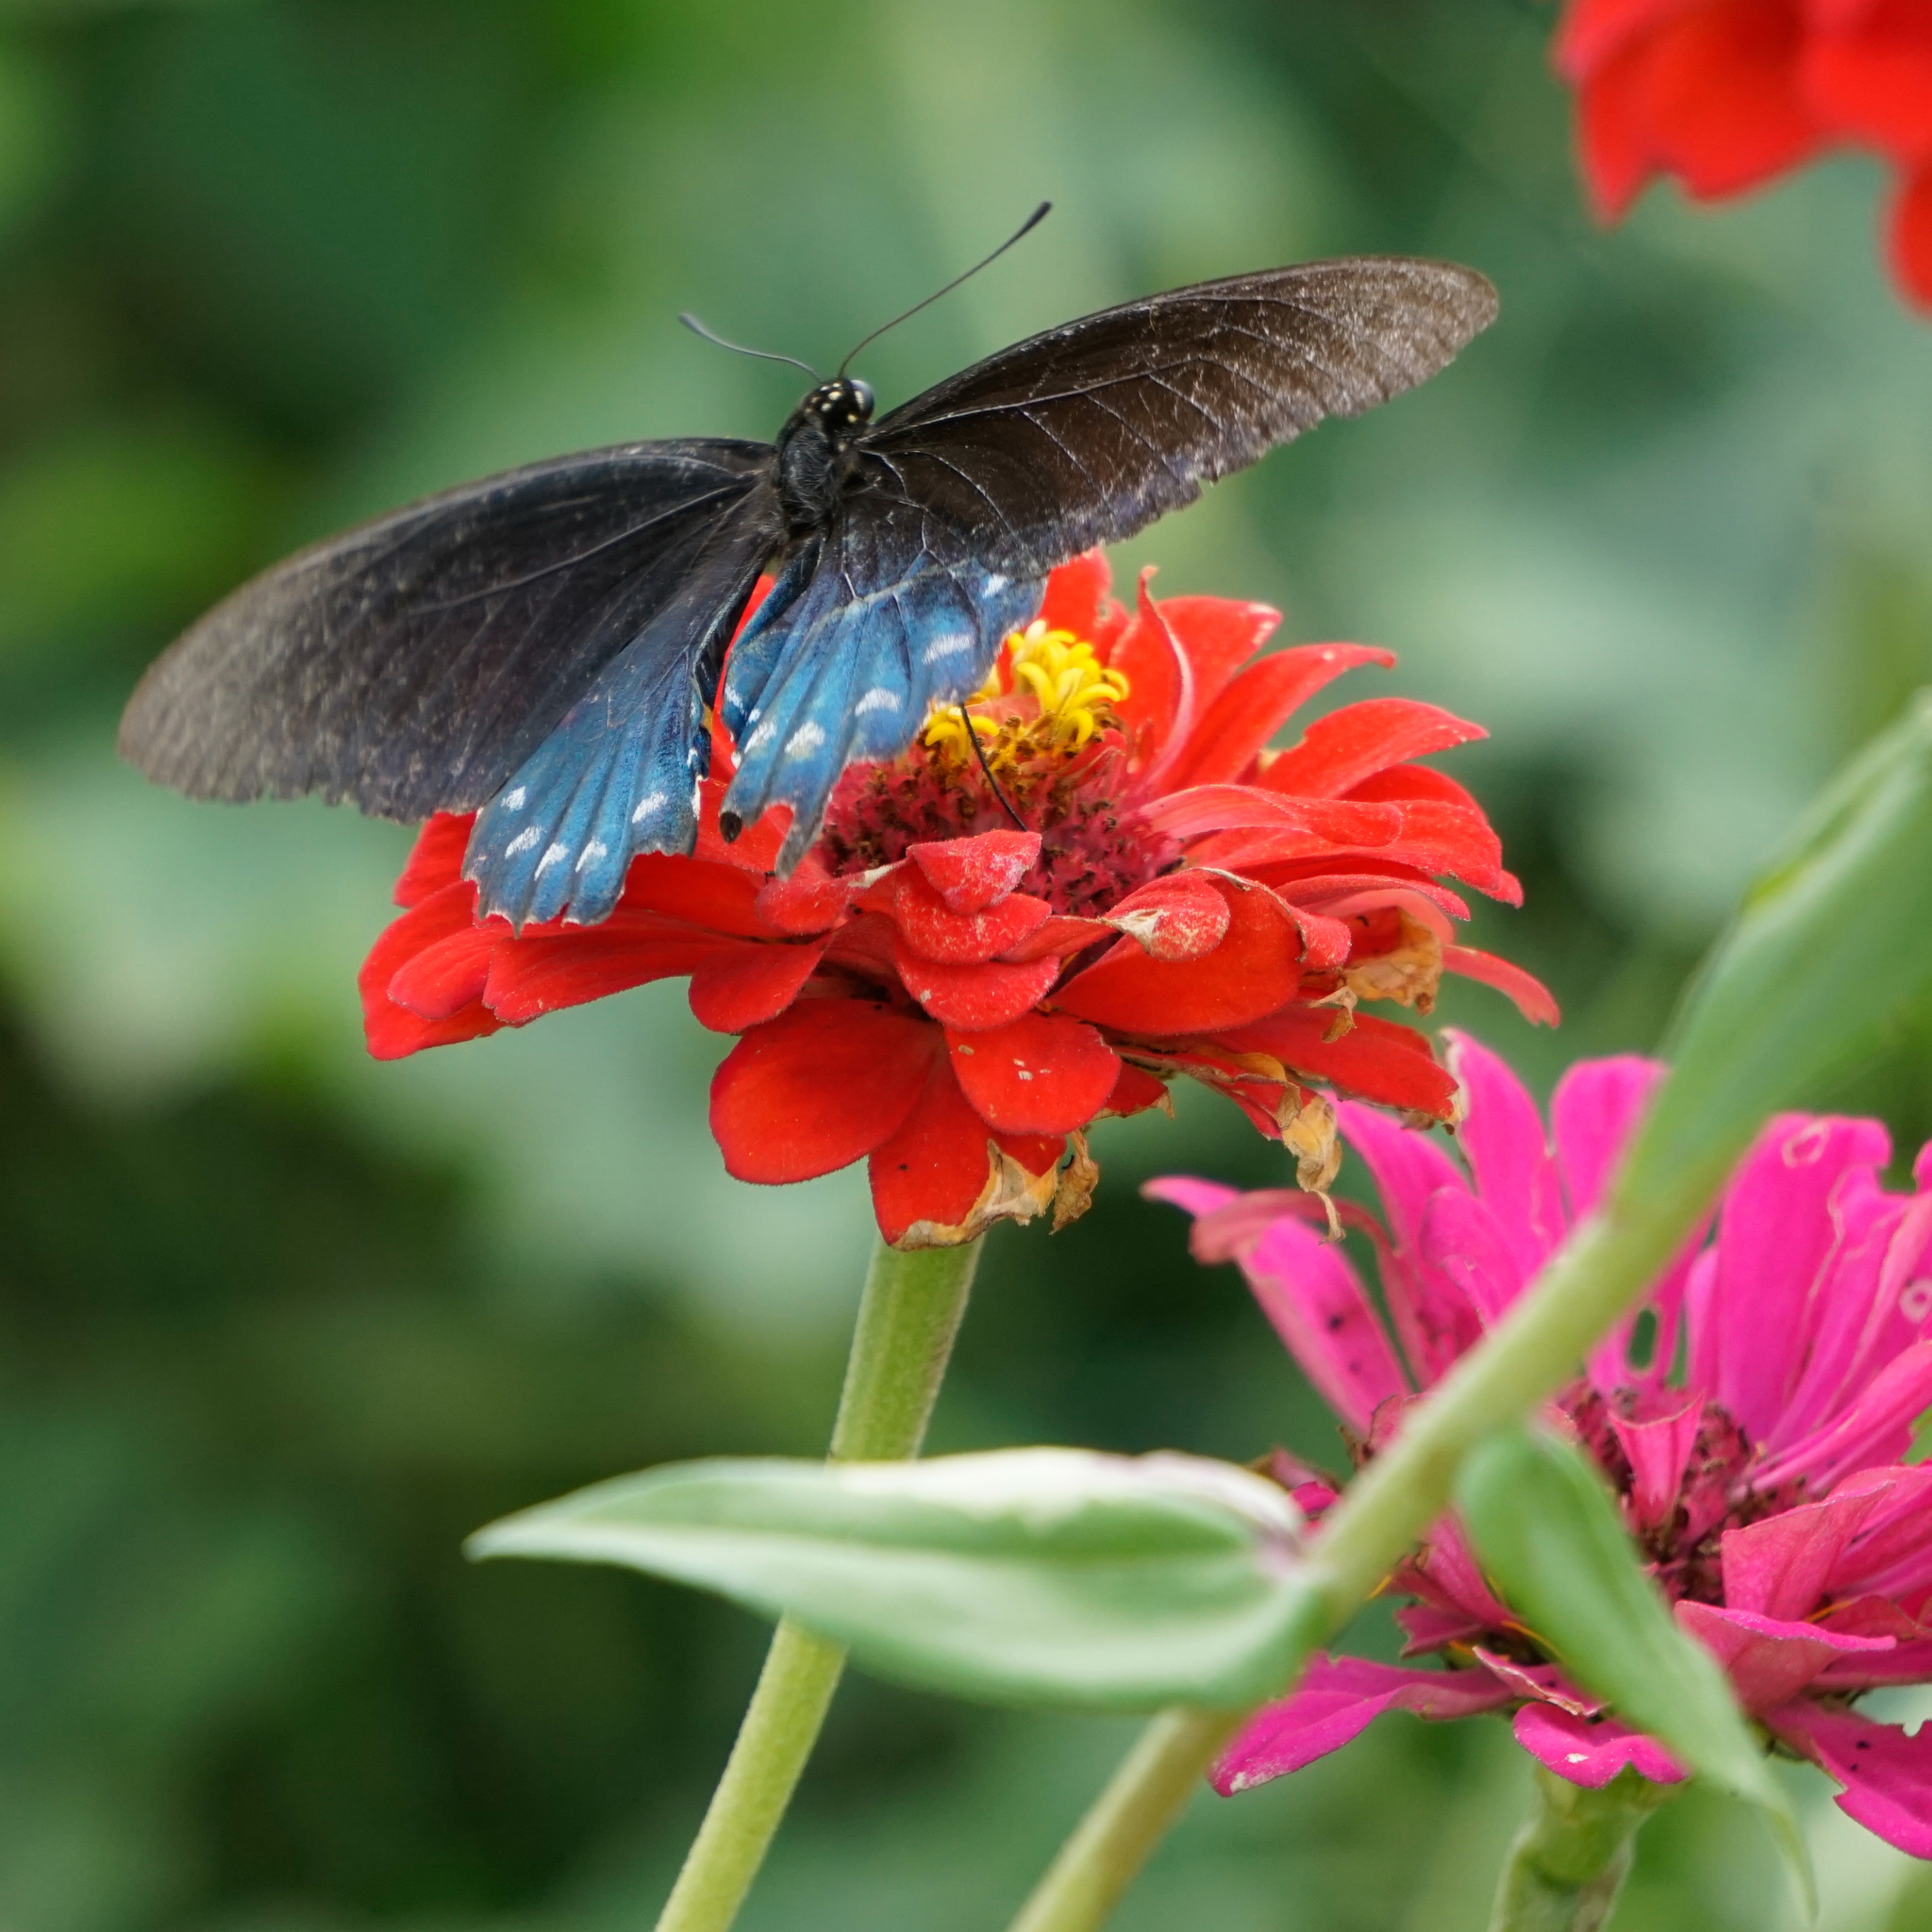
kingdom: Animalia
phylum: Arthropoda
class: Insecta
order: Lepidoptera
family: Papilionidae
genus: Battus
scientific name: Battus philenor
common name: Pipevine swallowtail
